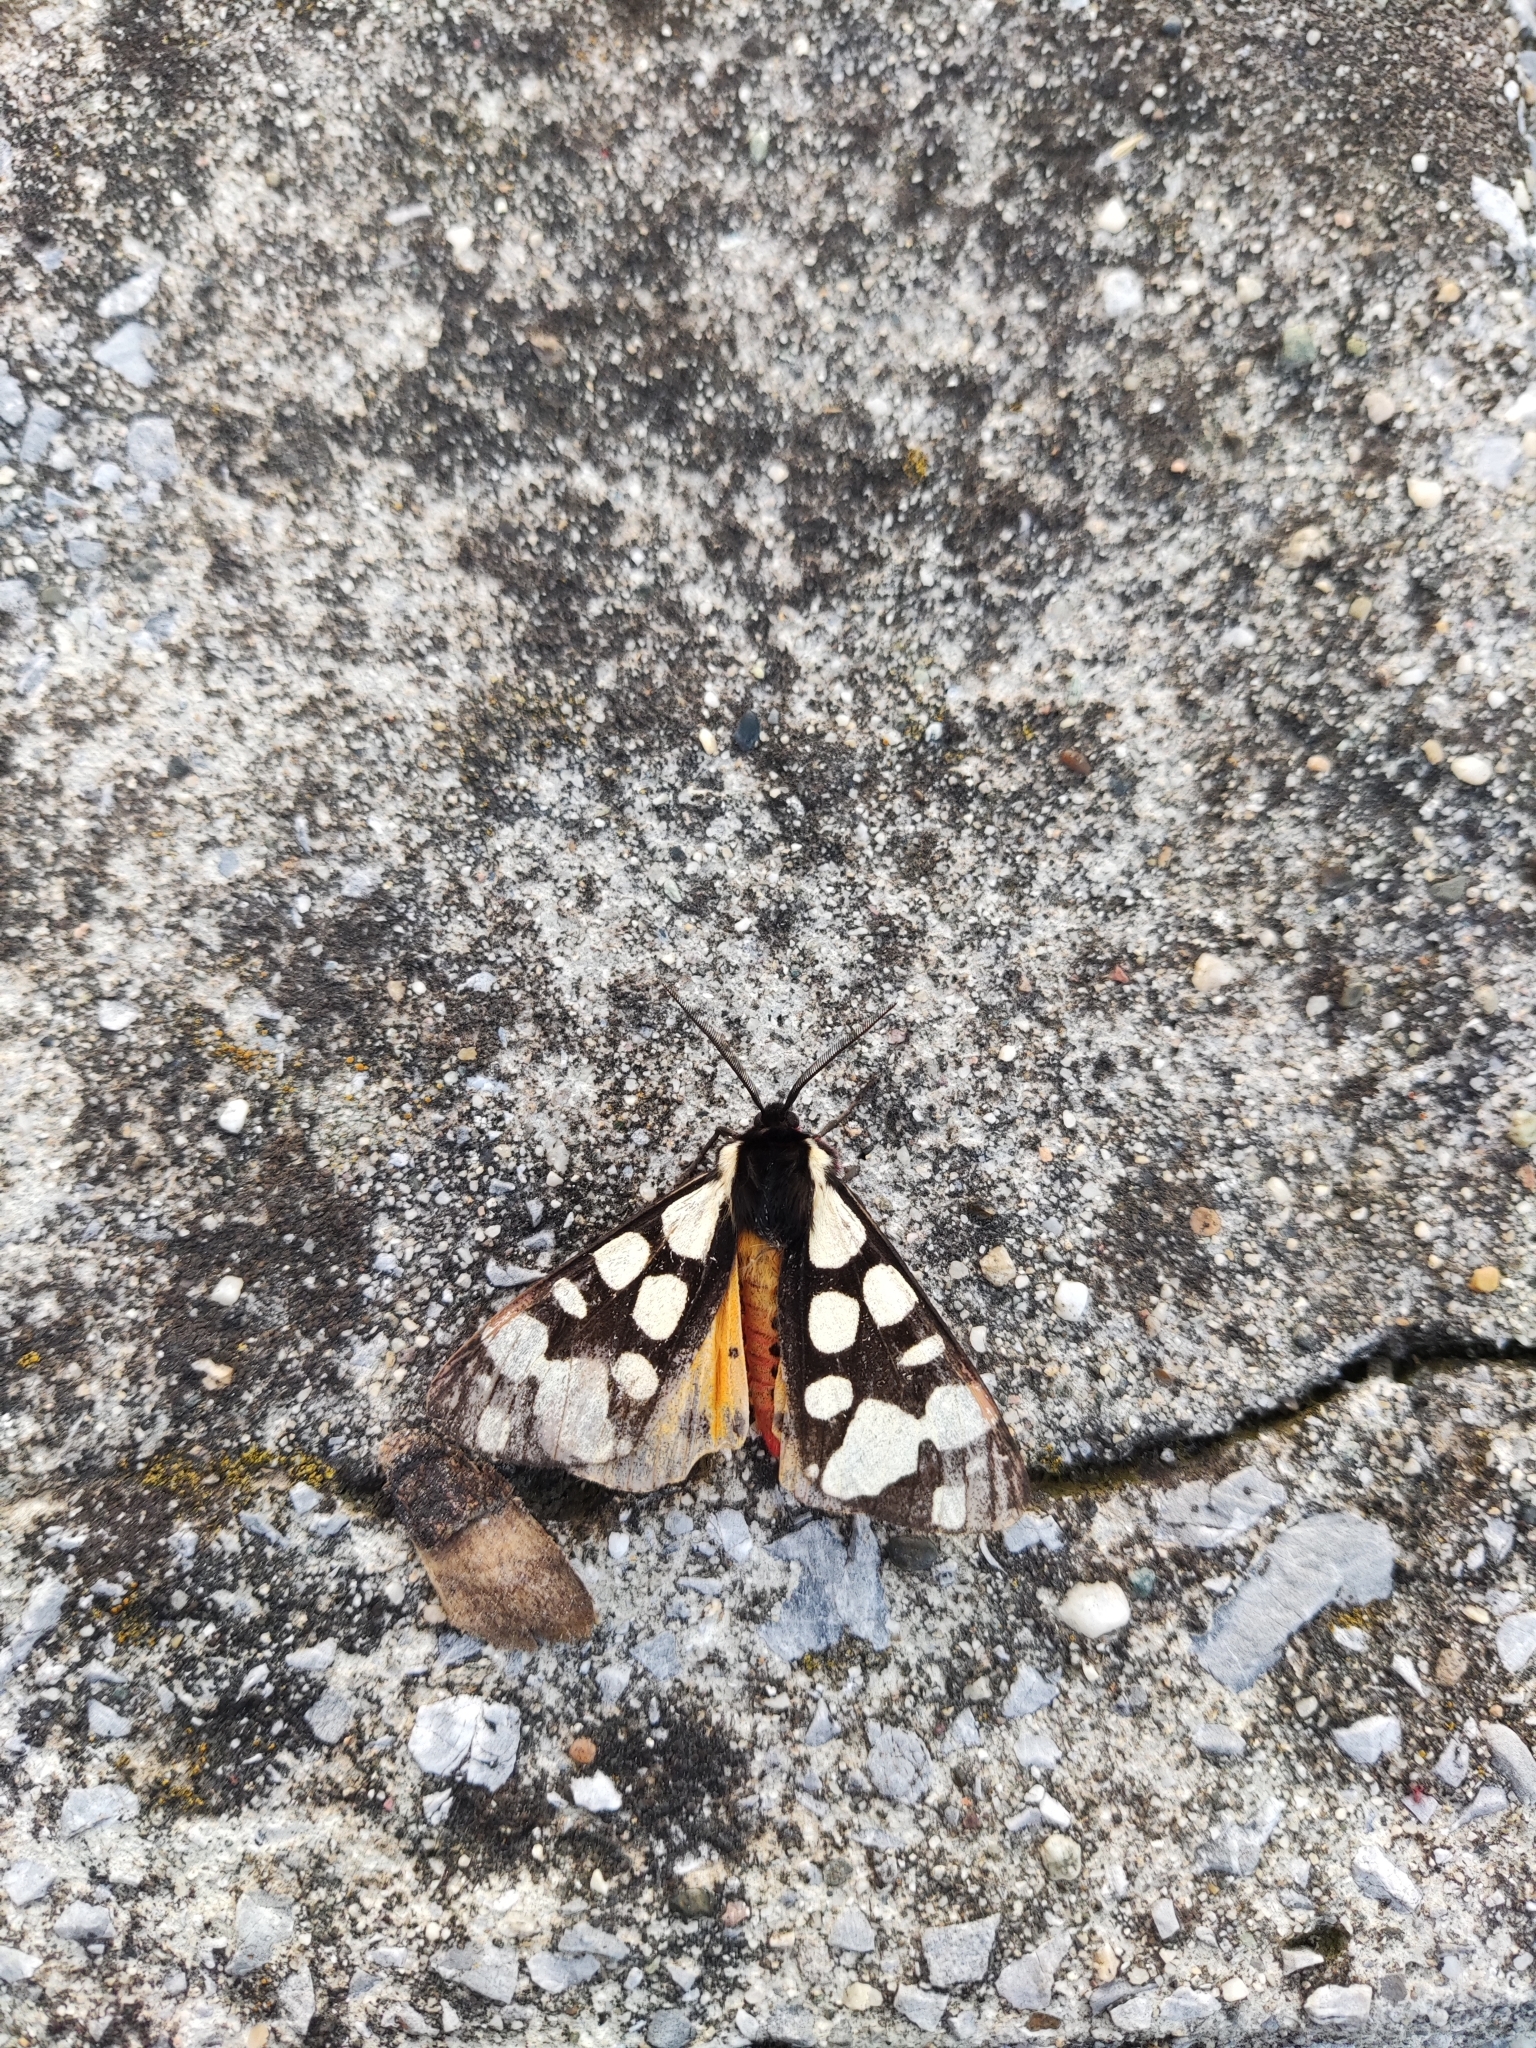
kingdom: Animalia
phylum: Arthropoda
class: Insecta
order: Lepidoptera
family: Erebidae
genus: Epicallia
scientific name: Epicallia villica
